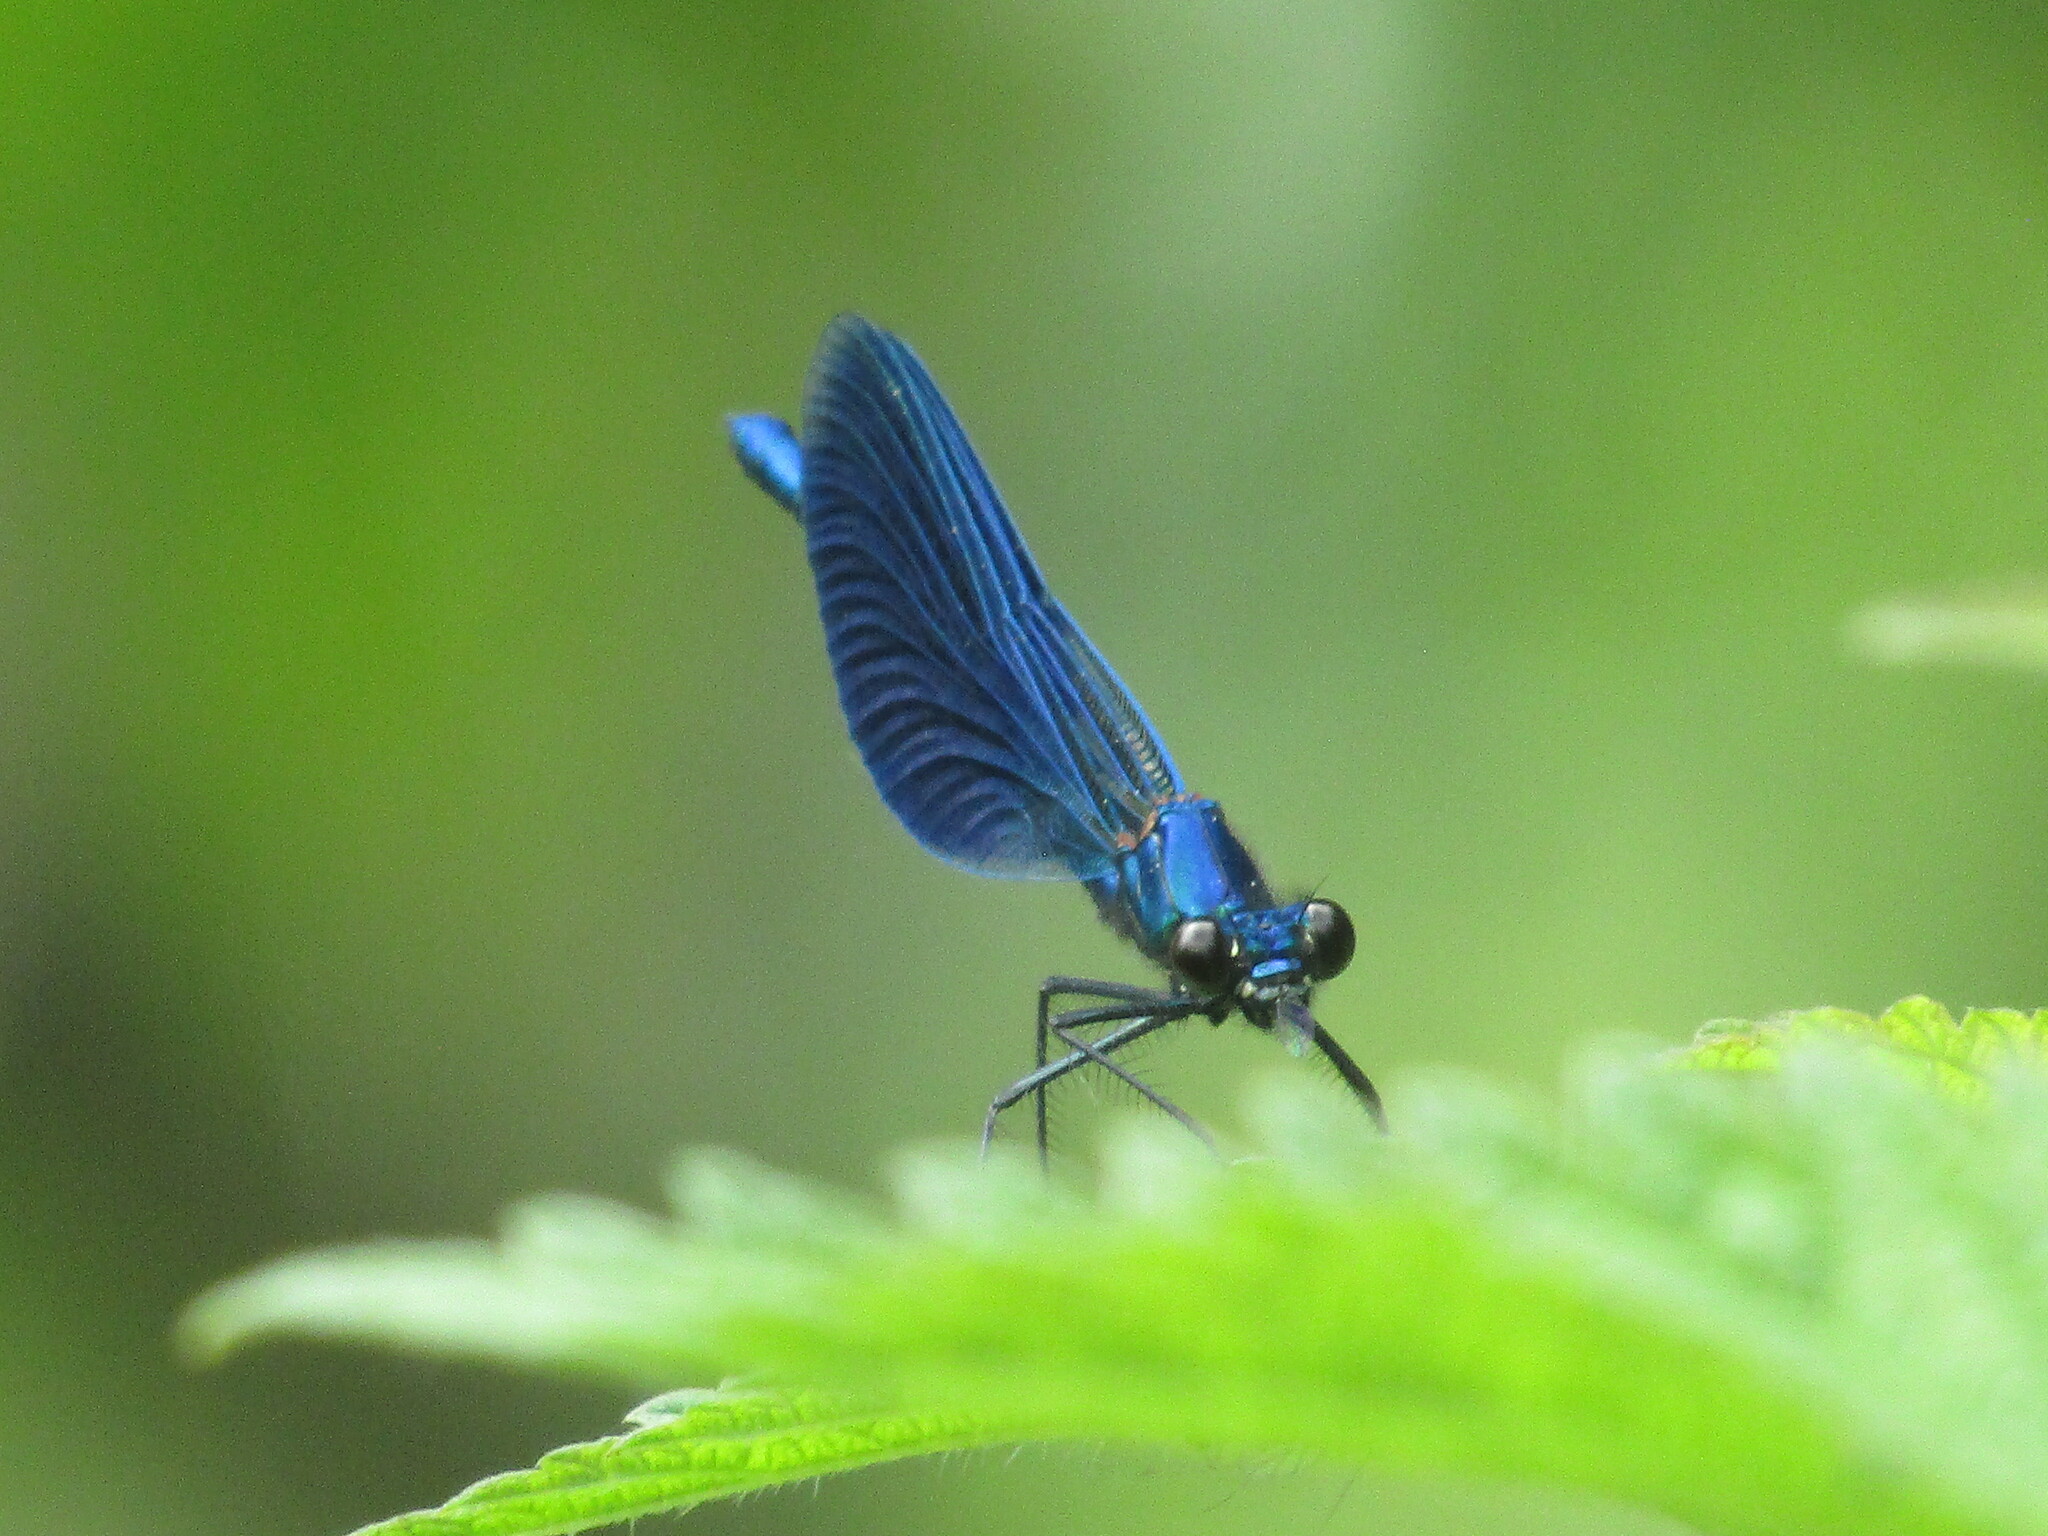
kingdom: Animalia
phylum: Arthropoda
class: Insecta
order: Odonata
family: Calopterygidae
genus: Calopteryx
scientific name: Calopteryx virgo
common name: Beautiful demoiselle
